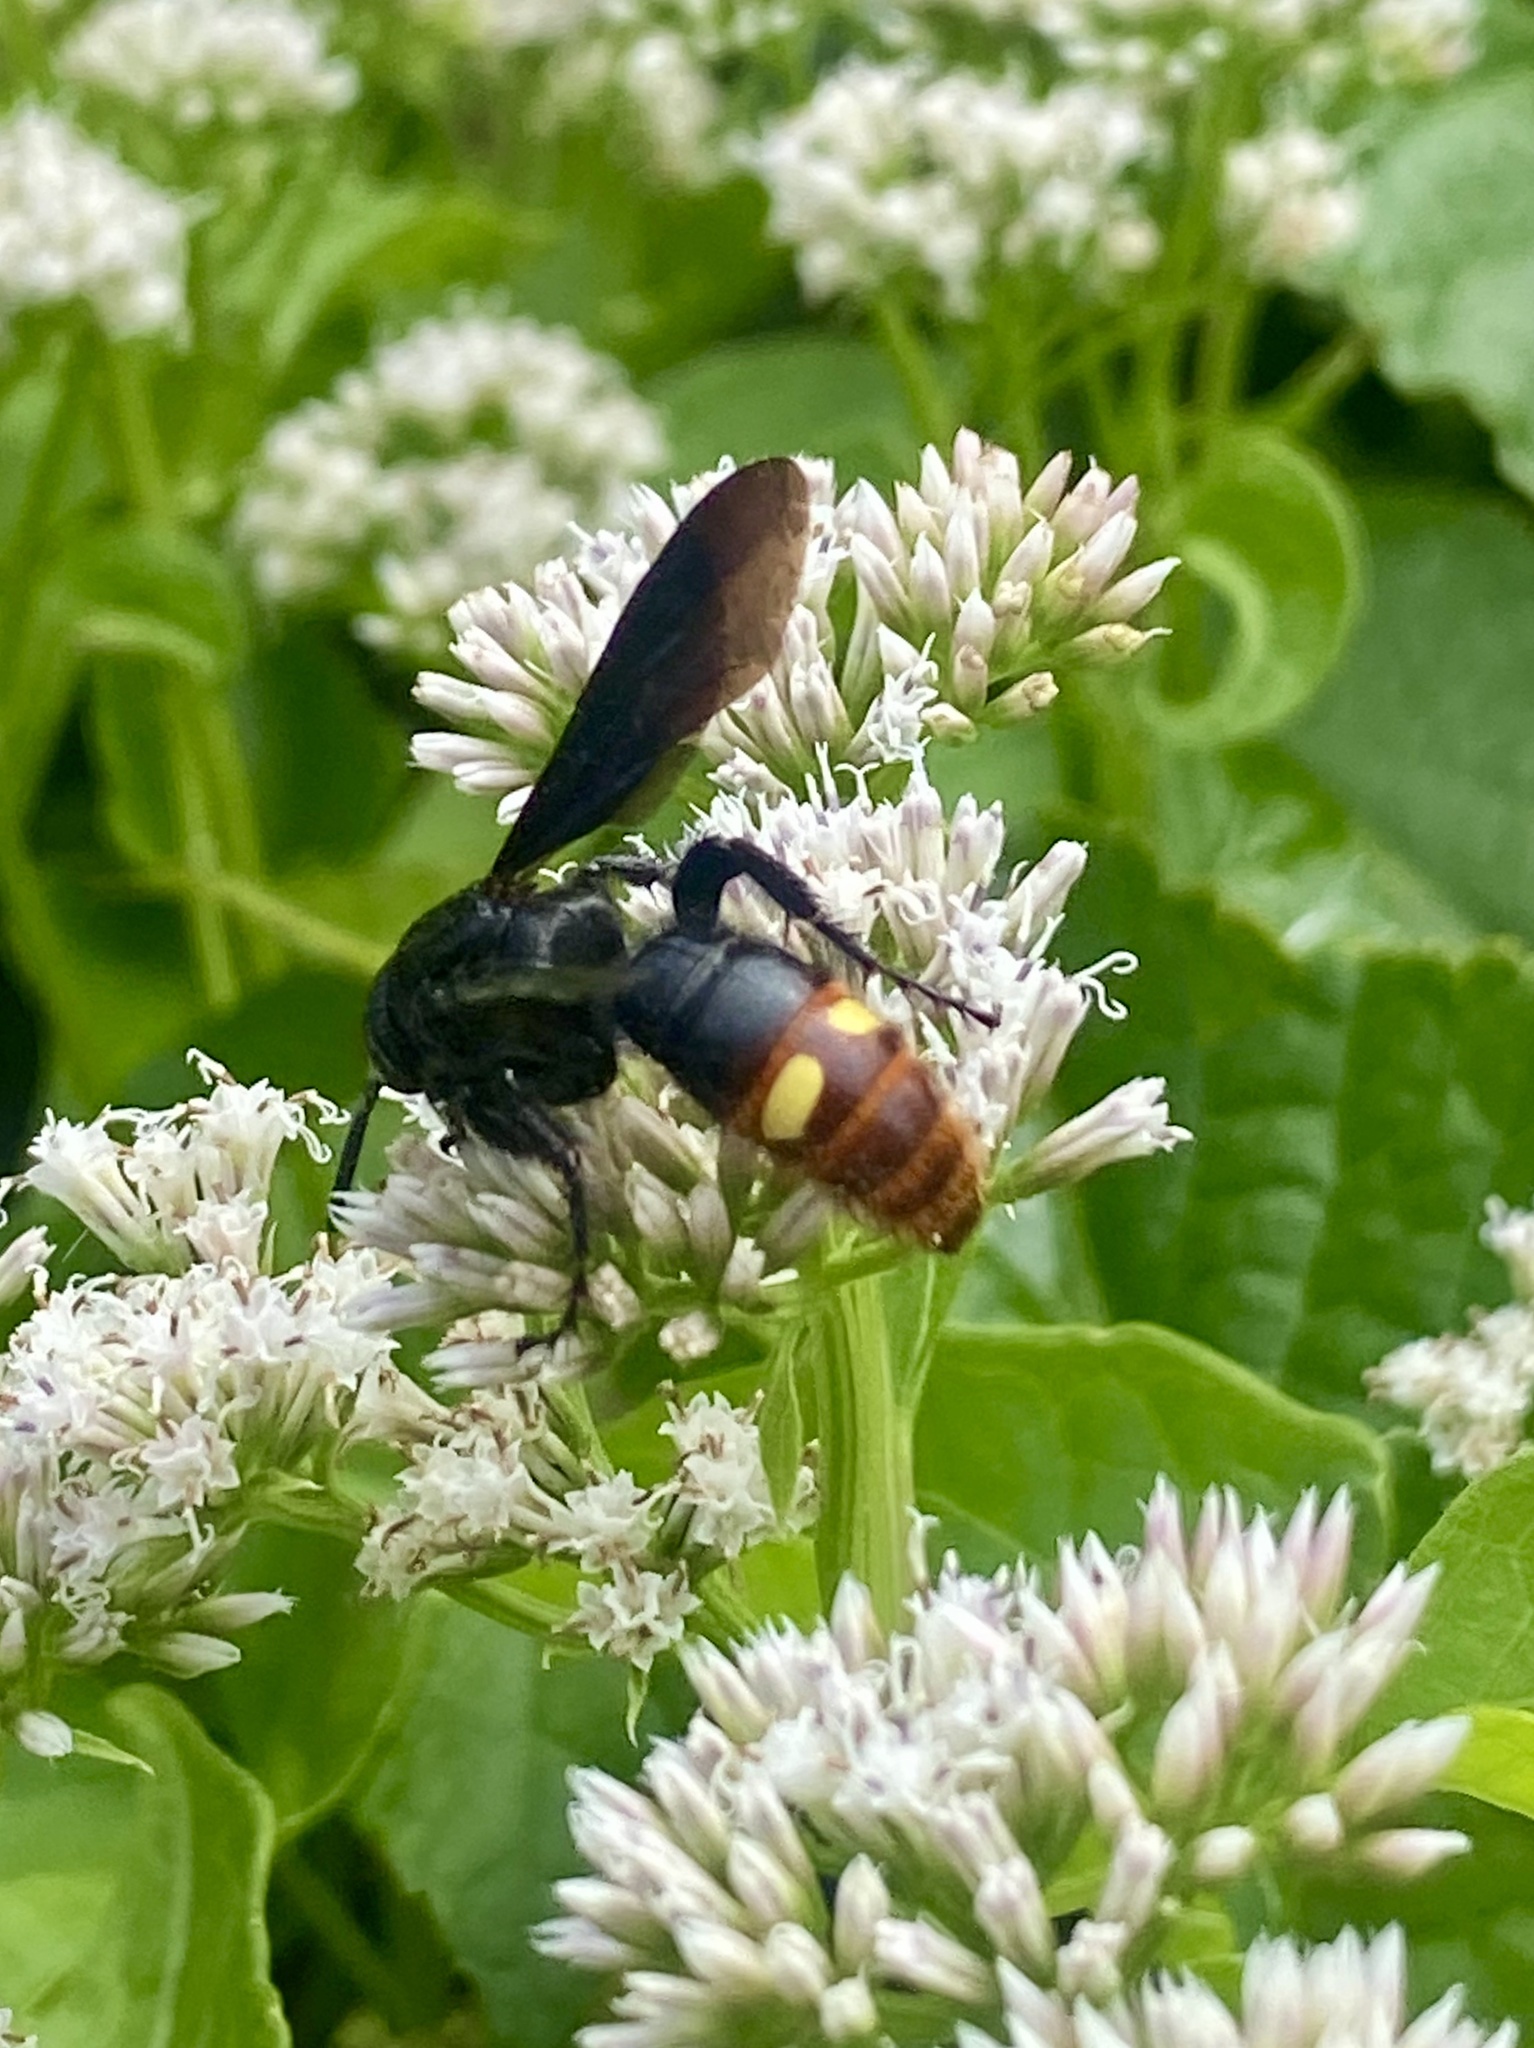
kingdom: Animalia
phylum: Arthropoda
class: Insecta
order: Hymenoptera
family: Scoliidae
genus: Scolia
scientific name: Scolia dubia
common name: Blue-winged scoliid wasp
